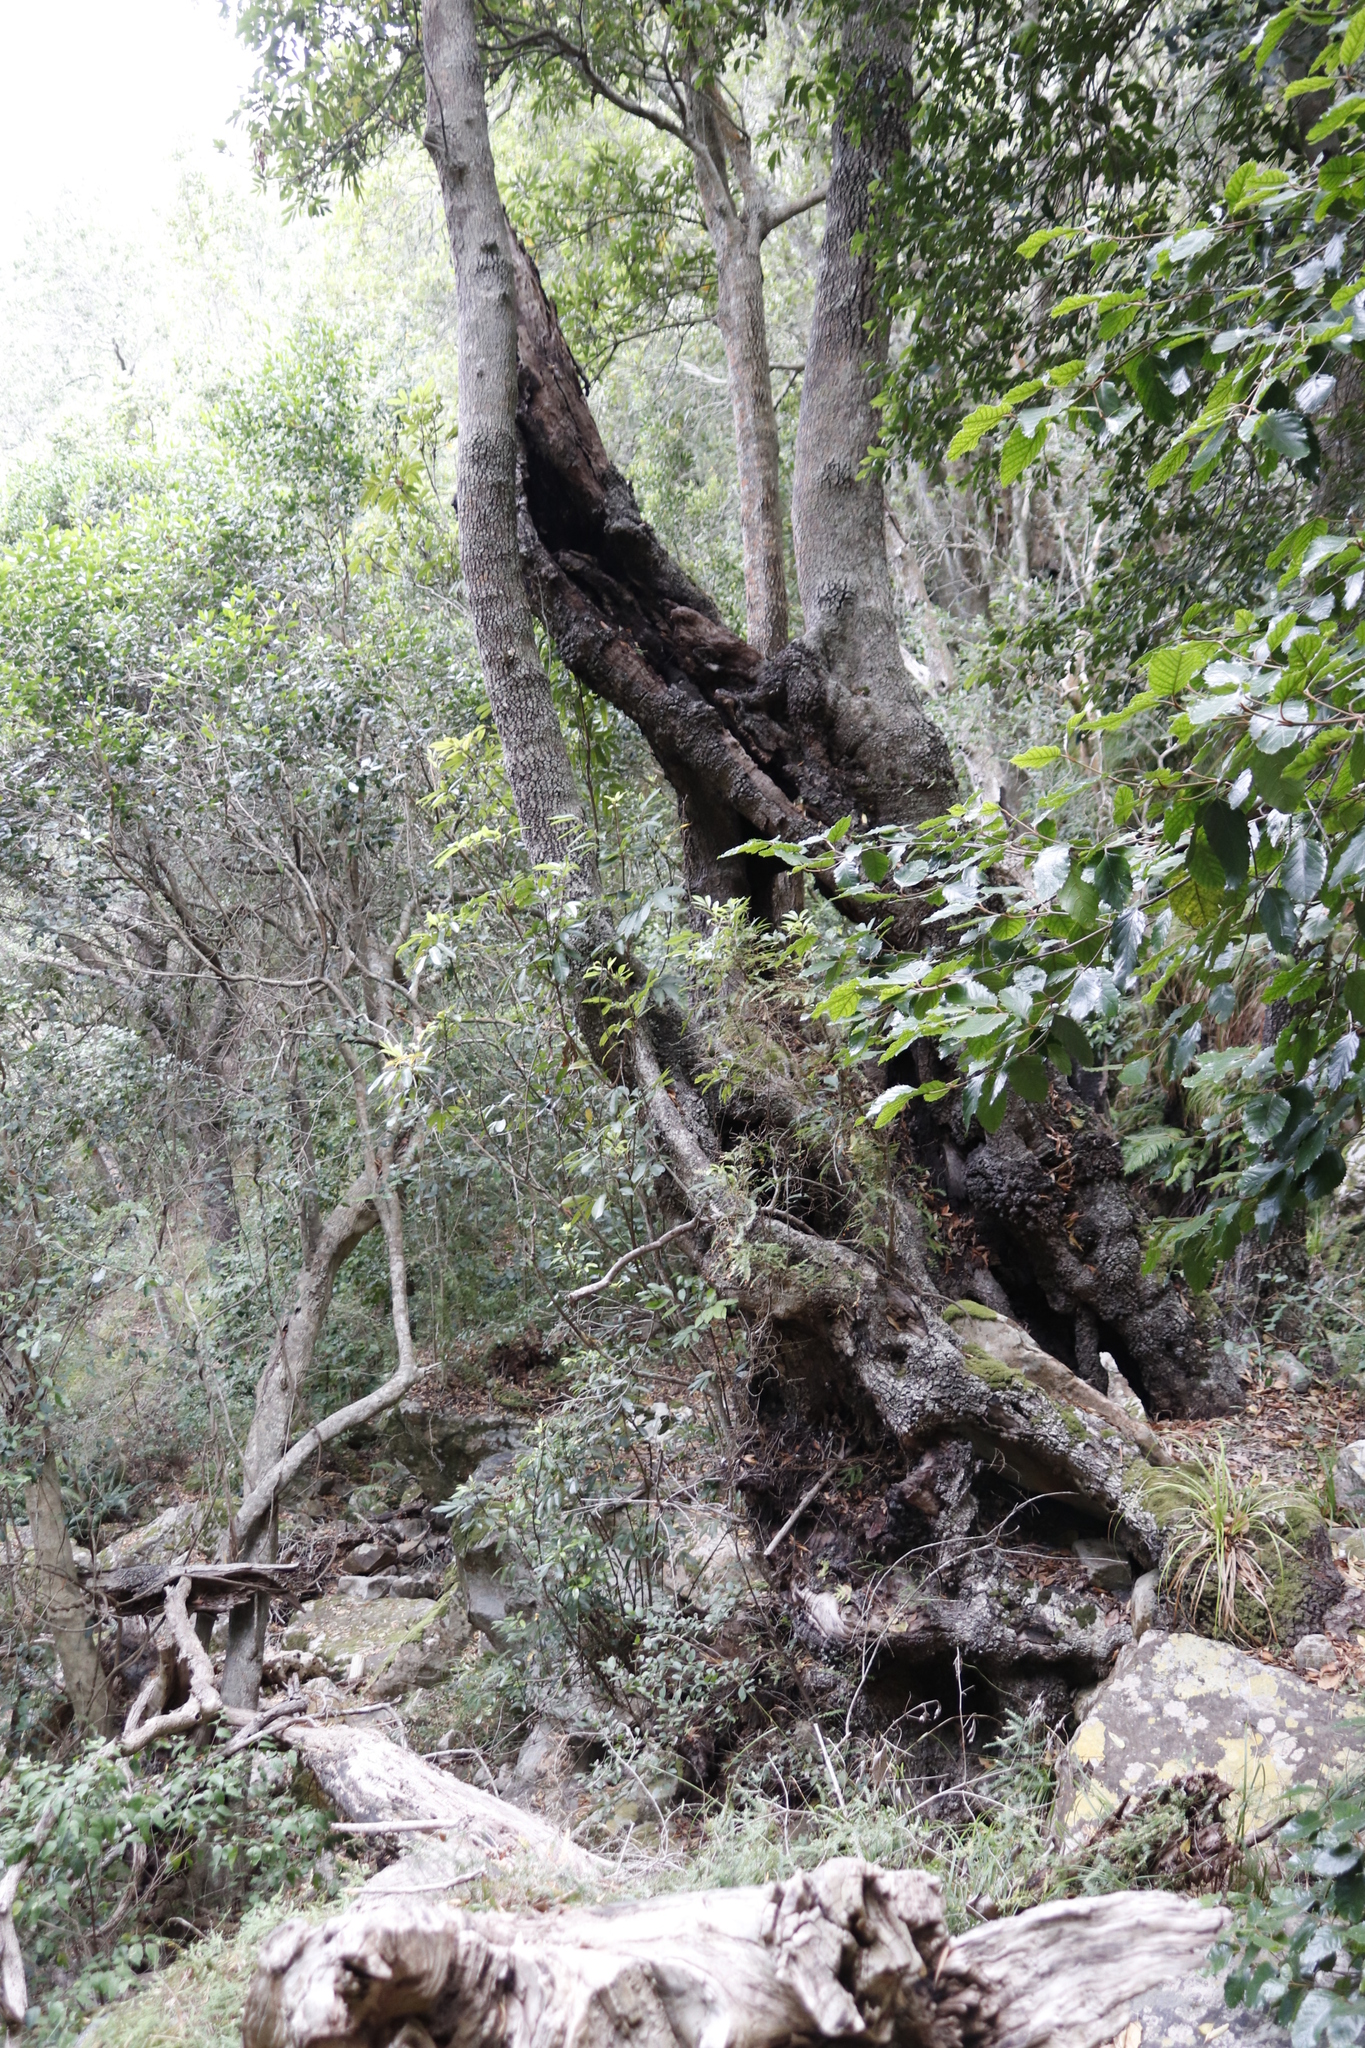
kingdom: Plantae
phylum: Tracheophyta
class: Magnoliopsida
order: Cornales
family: Curtisiaceae
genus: Curtisia
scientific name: Curtisia dentata
